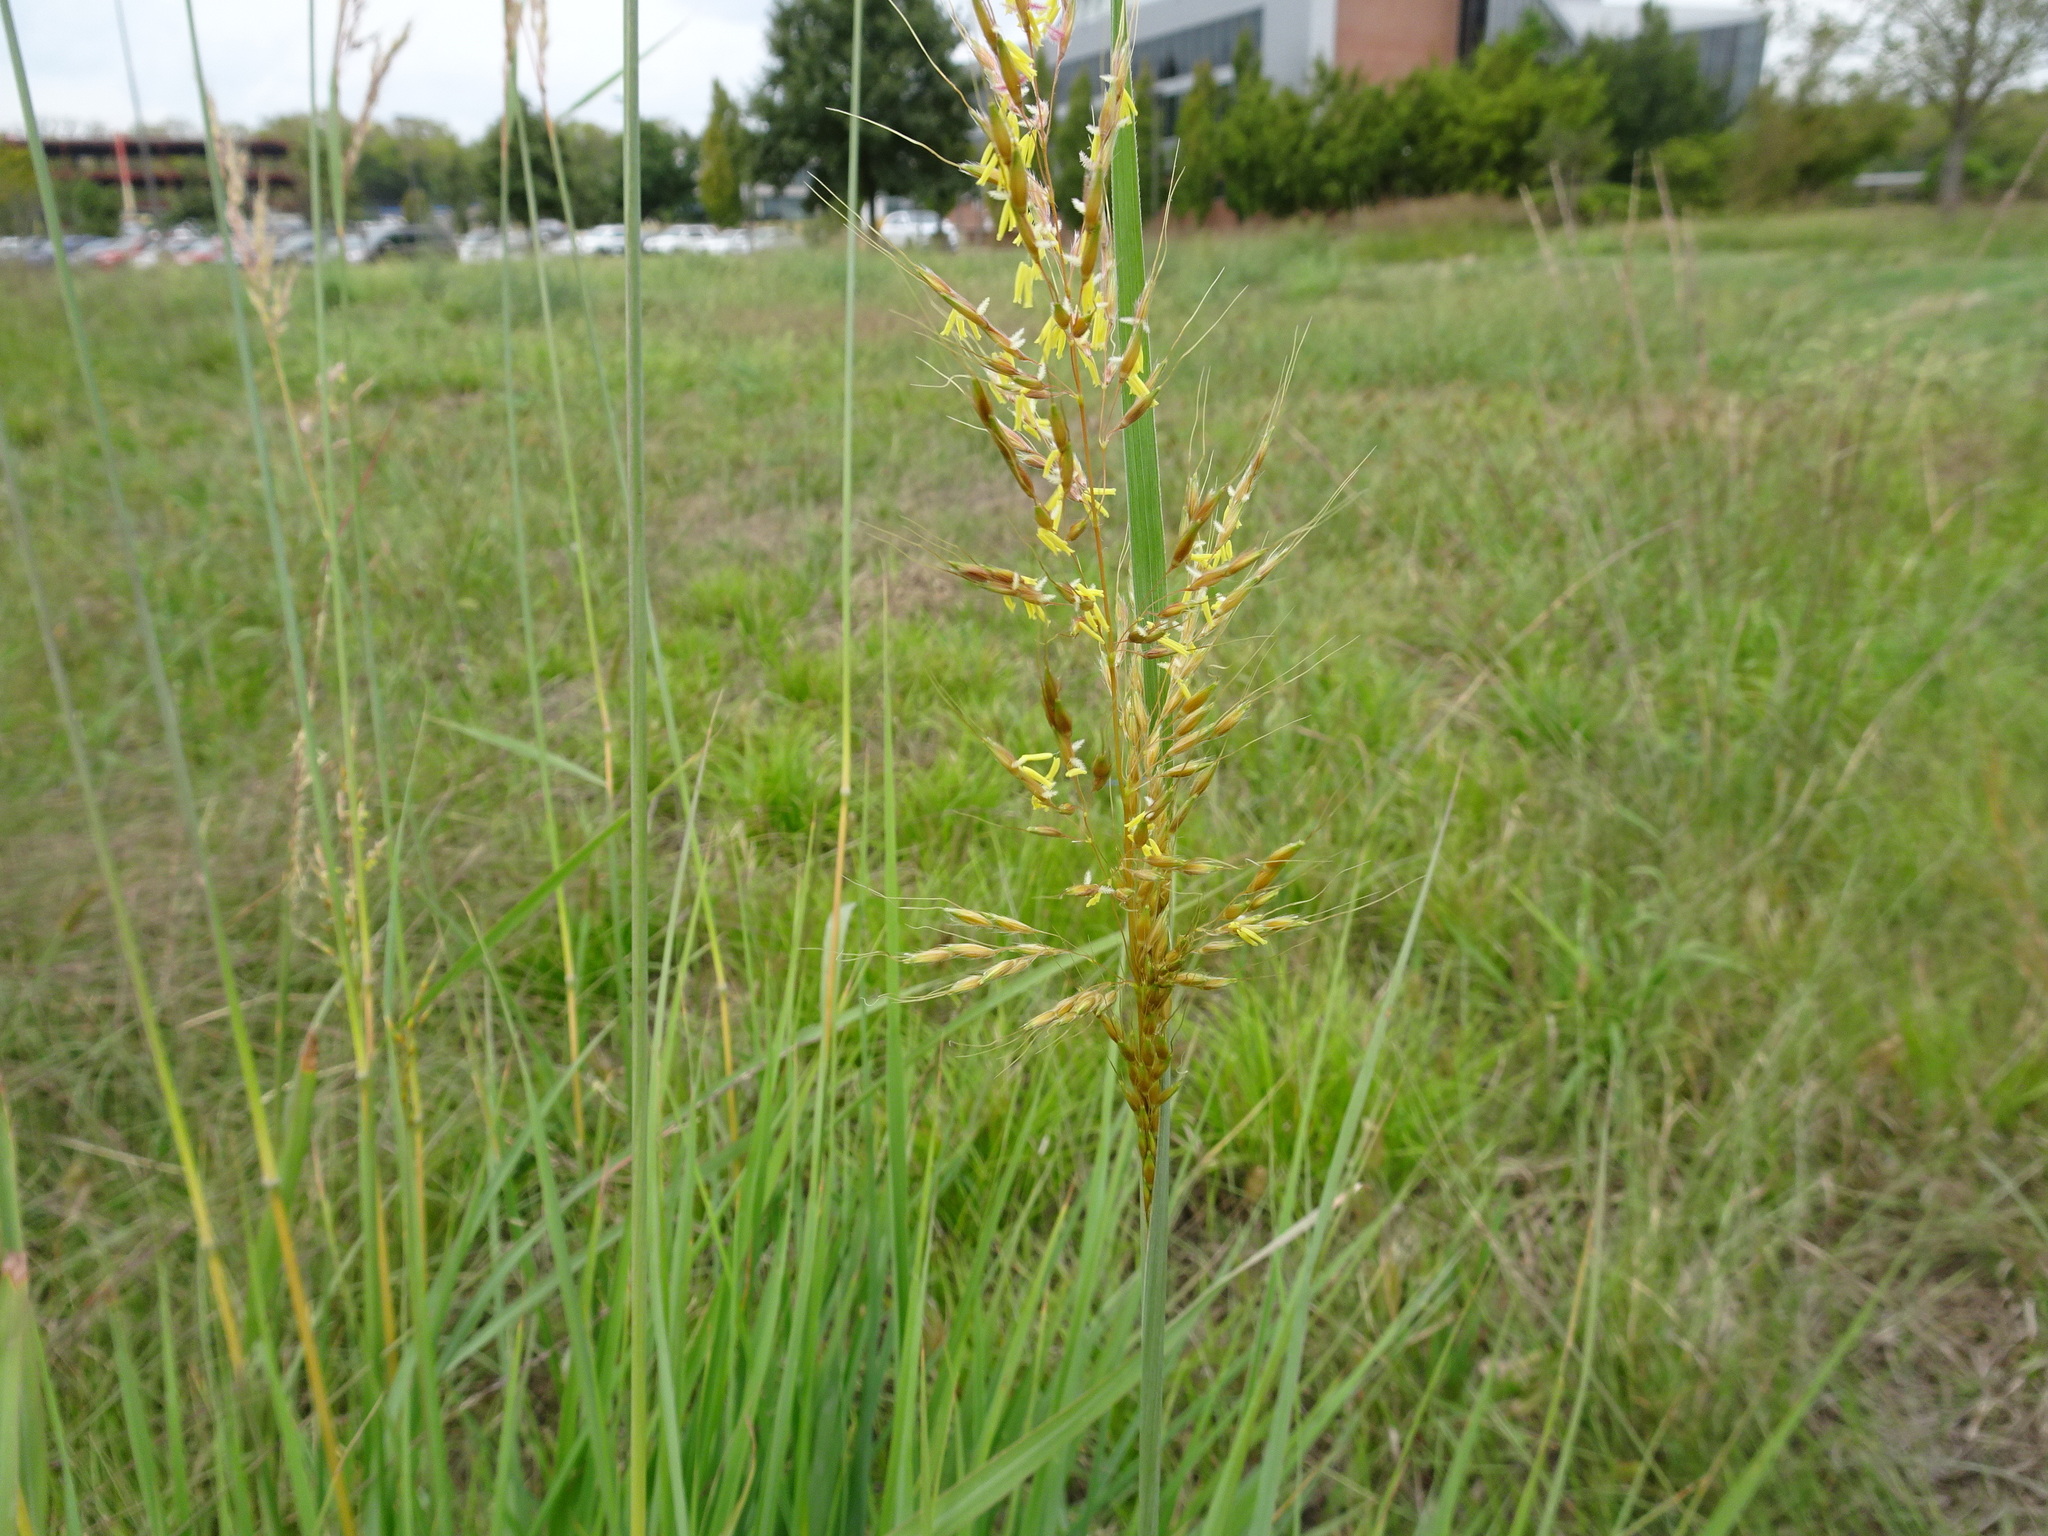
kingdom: Plantae
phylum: Tracheophyta
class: Liliopsida
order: Poales
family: Poaceae
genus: Sorghastrum
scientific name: Sorghastrum nutans
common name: Indian grass
